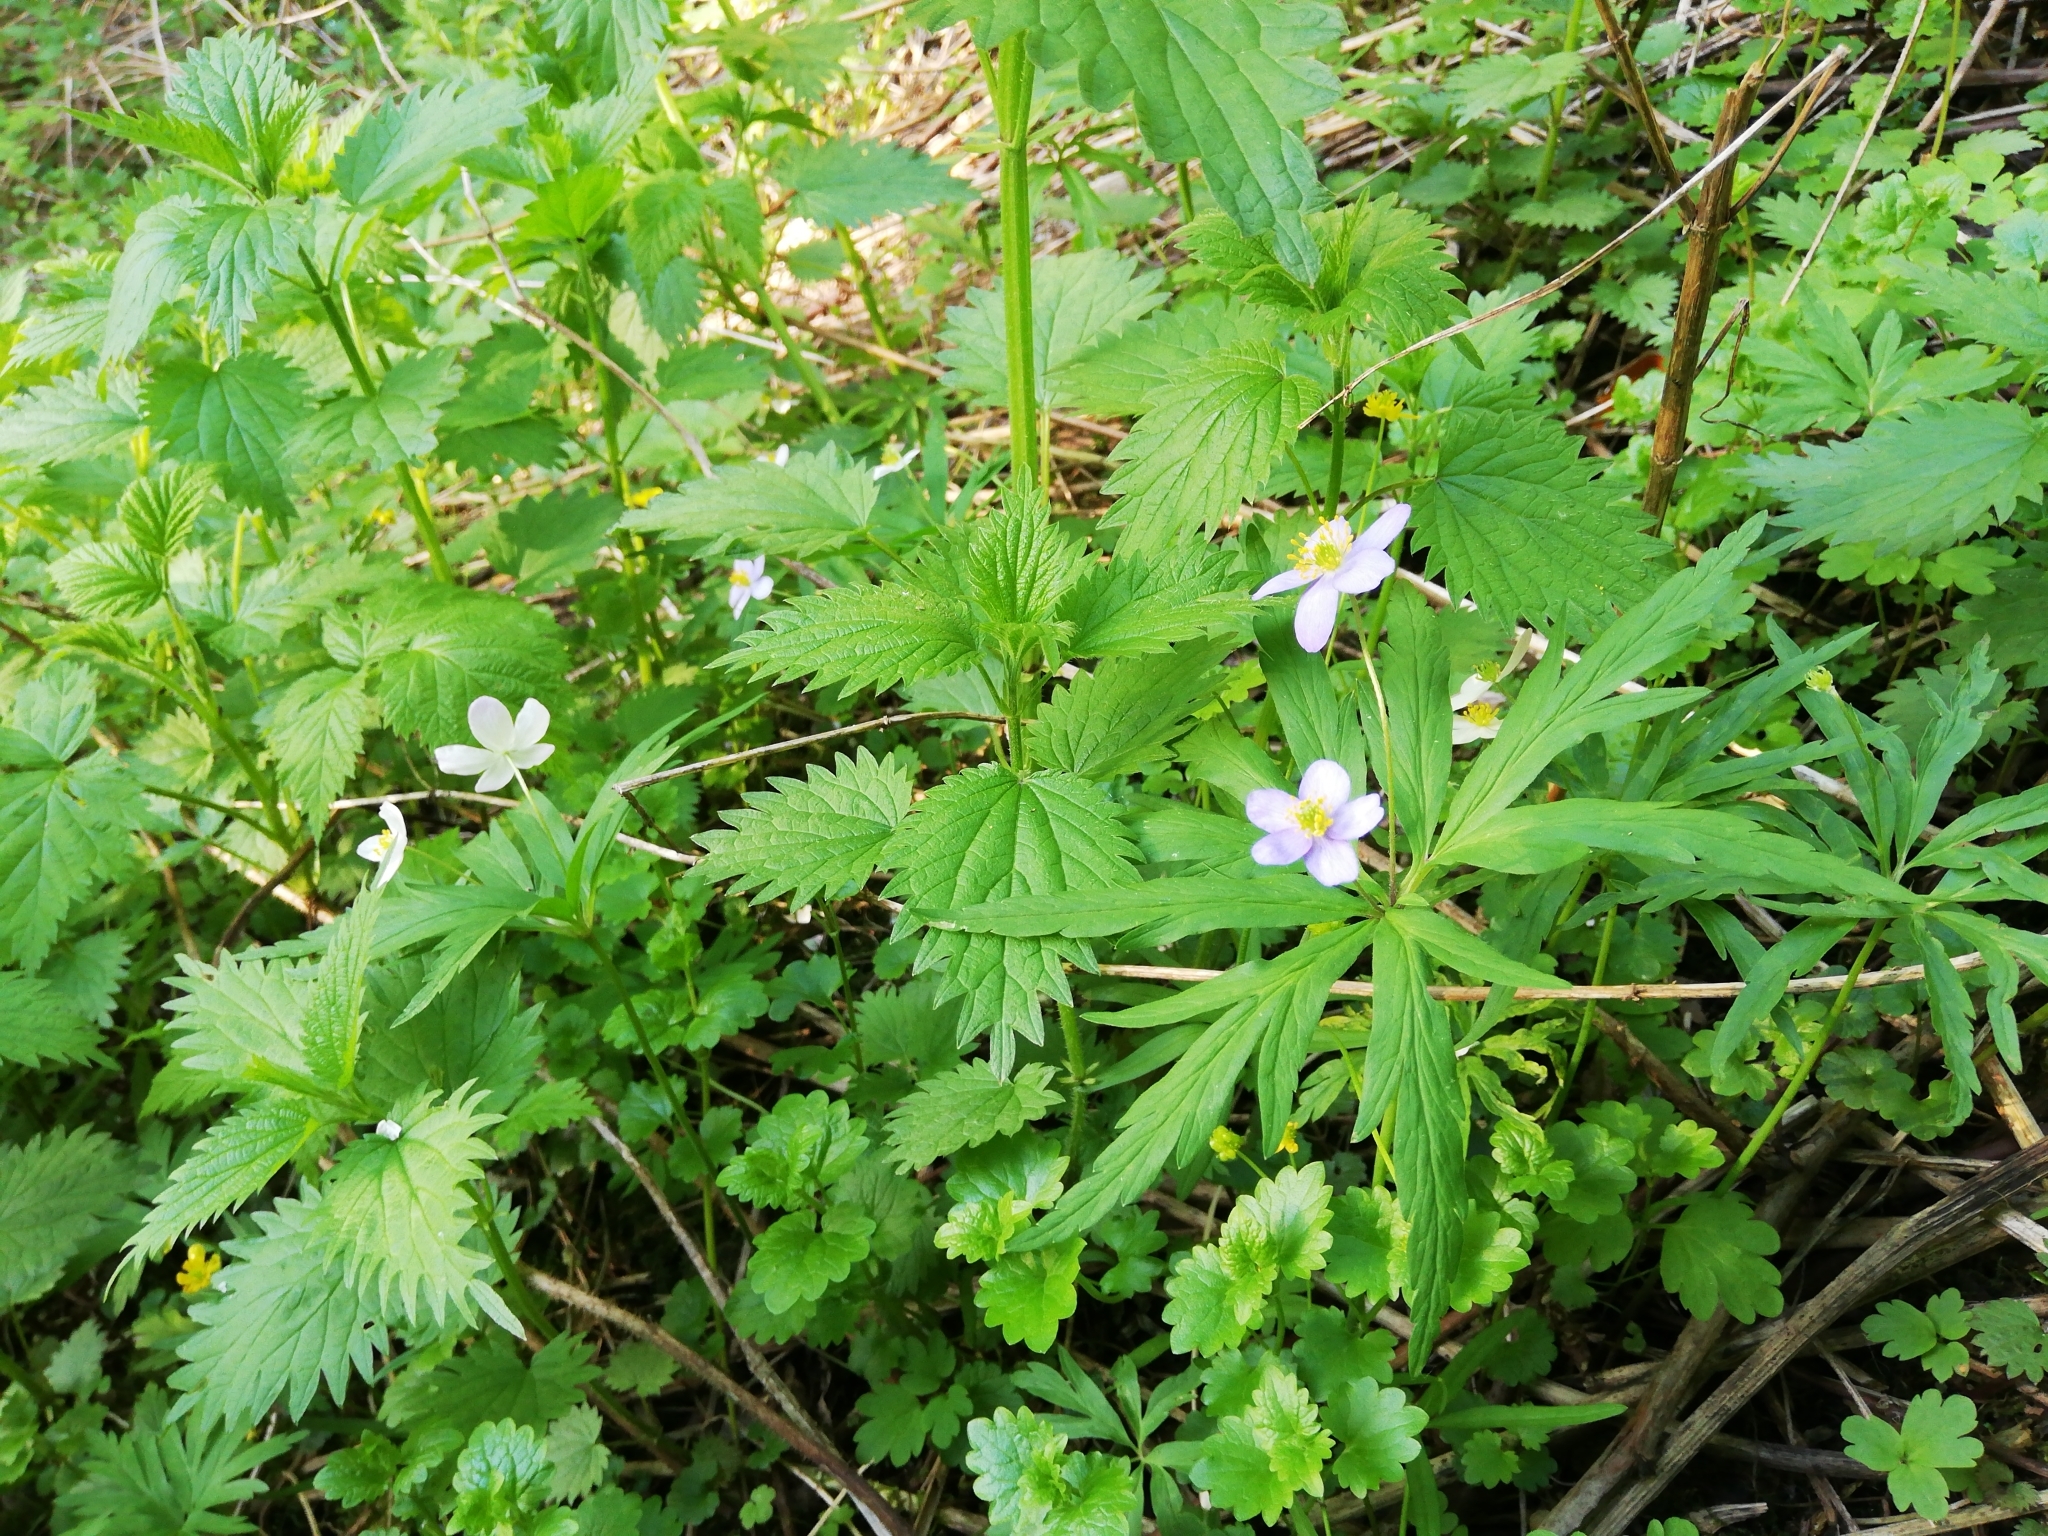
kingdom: Plantae
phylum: Tracheophyta
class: Magnoliopsida
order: Ranunculales
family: Ranunculaceae
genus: Anemone
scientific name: Anemone caerulea
